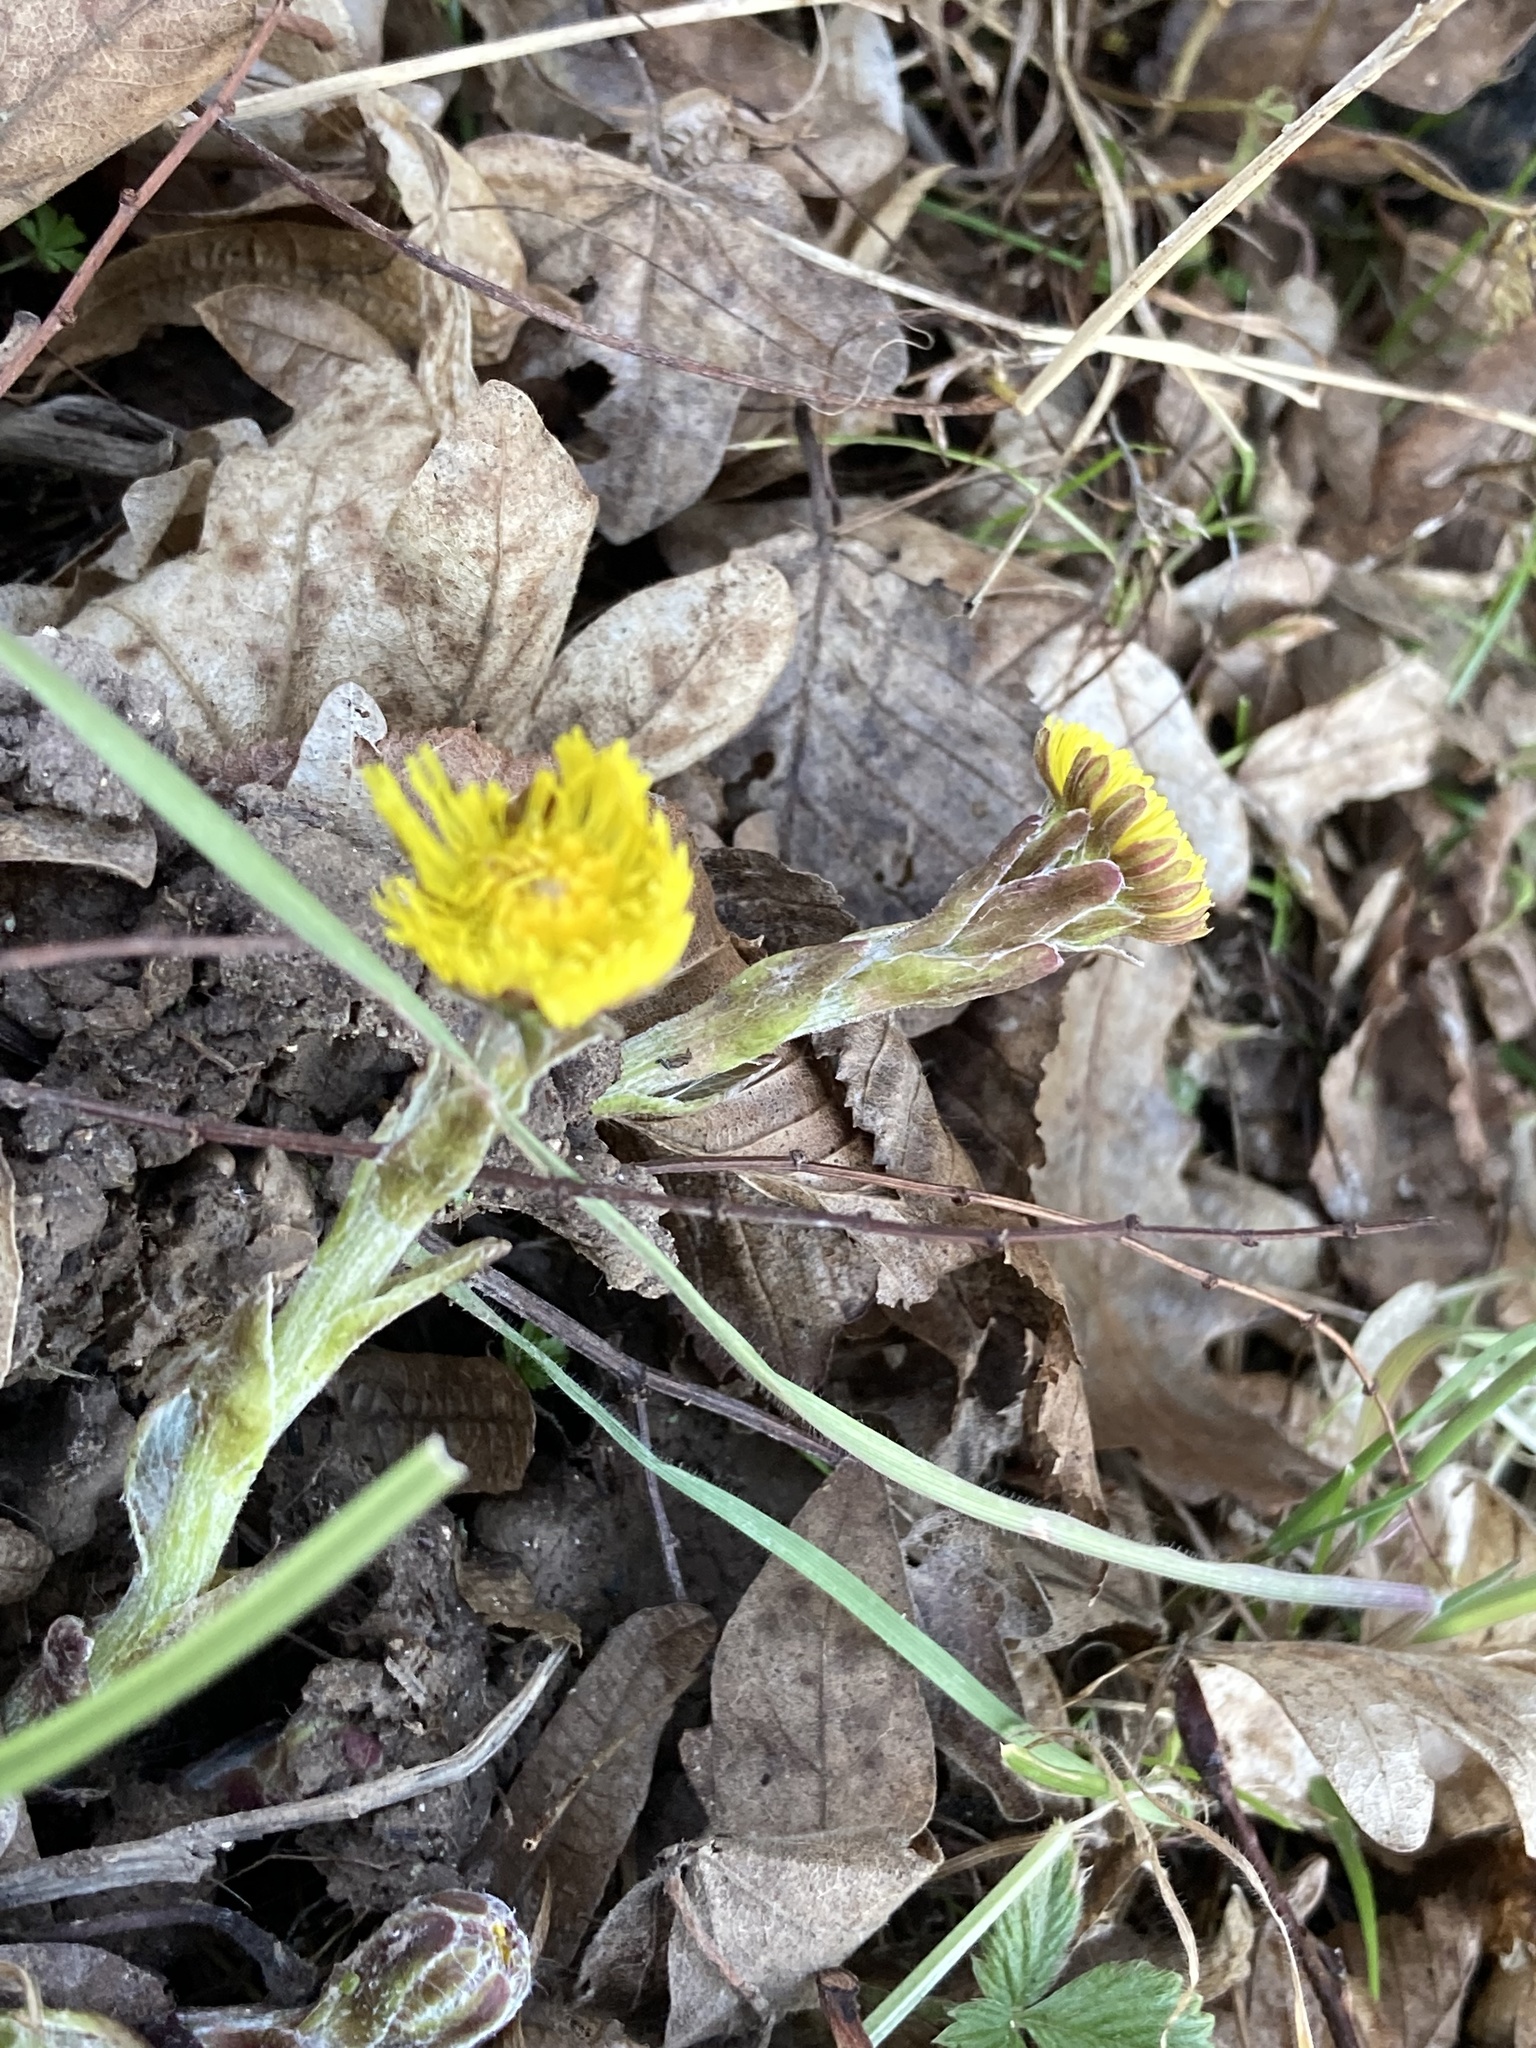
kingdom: Plantae
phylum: Tracheophyta
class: Magnoliopsida
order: Asterales
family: Asteraceae
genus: Tussilago
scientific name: Tussilago farfara
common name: Coltsfoot
